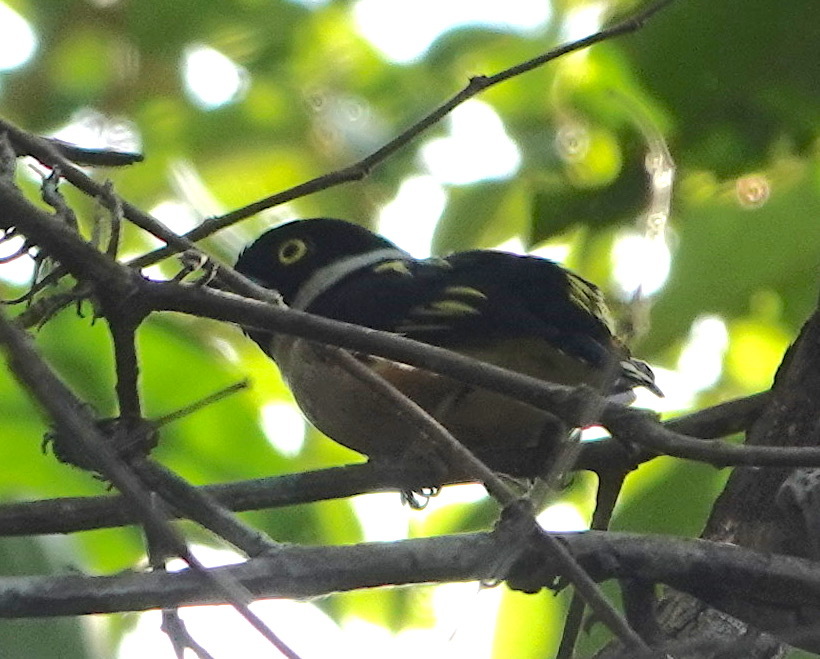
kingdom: Animalia
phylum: Chordata
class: Aves
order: Passeriformes
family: Eurylaimidae
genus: Eurylaimus
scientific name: Eurylaimus ochromalus
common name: Black-and-yellow broadbill
